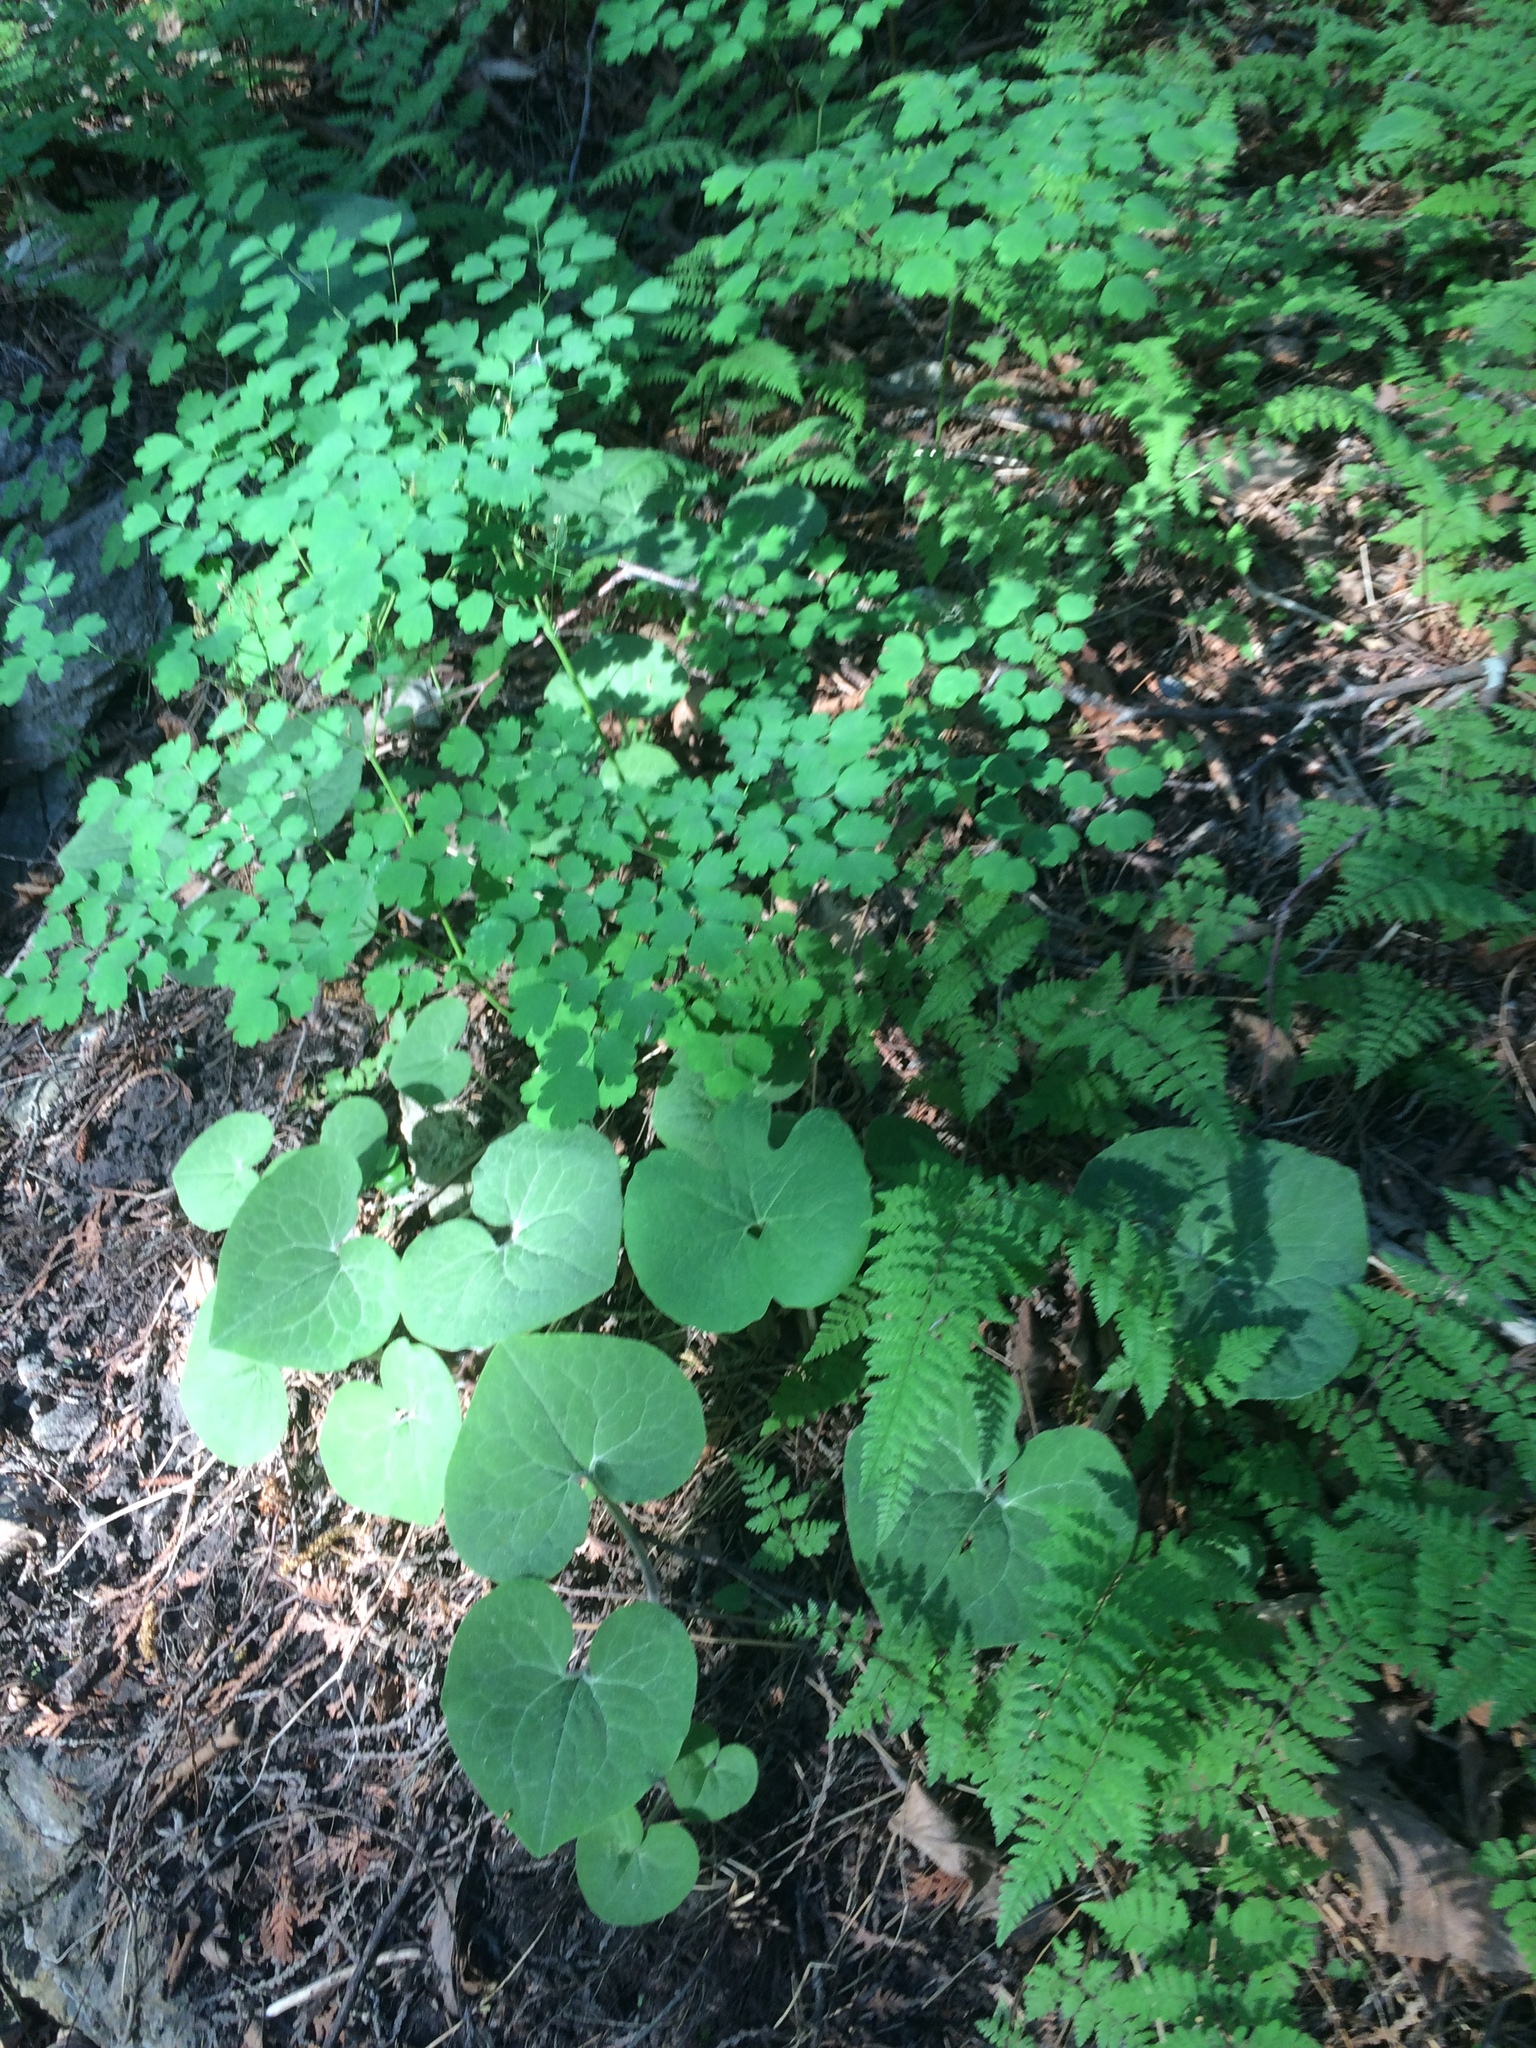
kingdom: Plantae
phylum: Tracheophyta
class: Magnoliopsida
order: Piperales
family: Aristolochiaceae
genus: Asarum
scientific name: Asarum canadense
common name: Wild ginger
